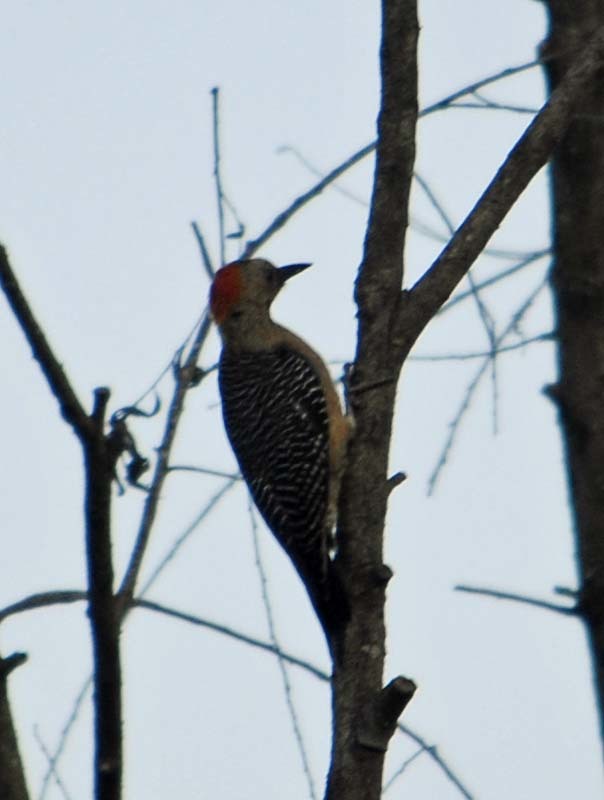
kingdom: Animalia
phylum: Chordata
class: Aves
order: Piciformes
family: Picidae
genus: Melanerpes
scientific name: Melanerpes aurifrons
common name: Golden-fronted woodpecker
